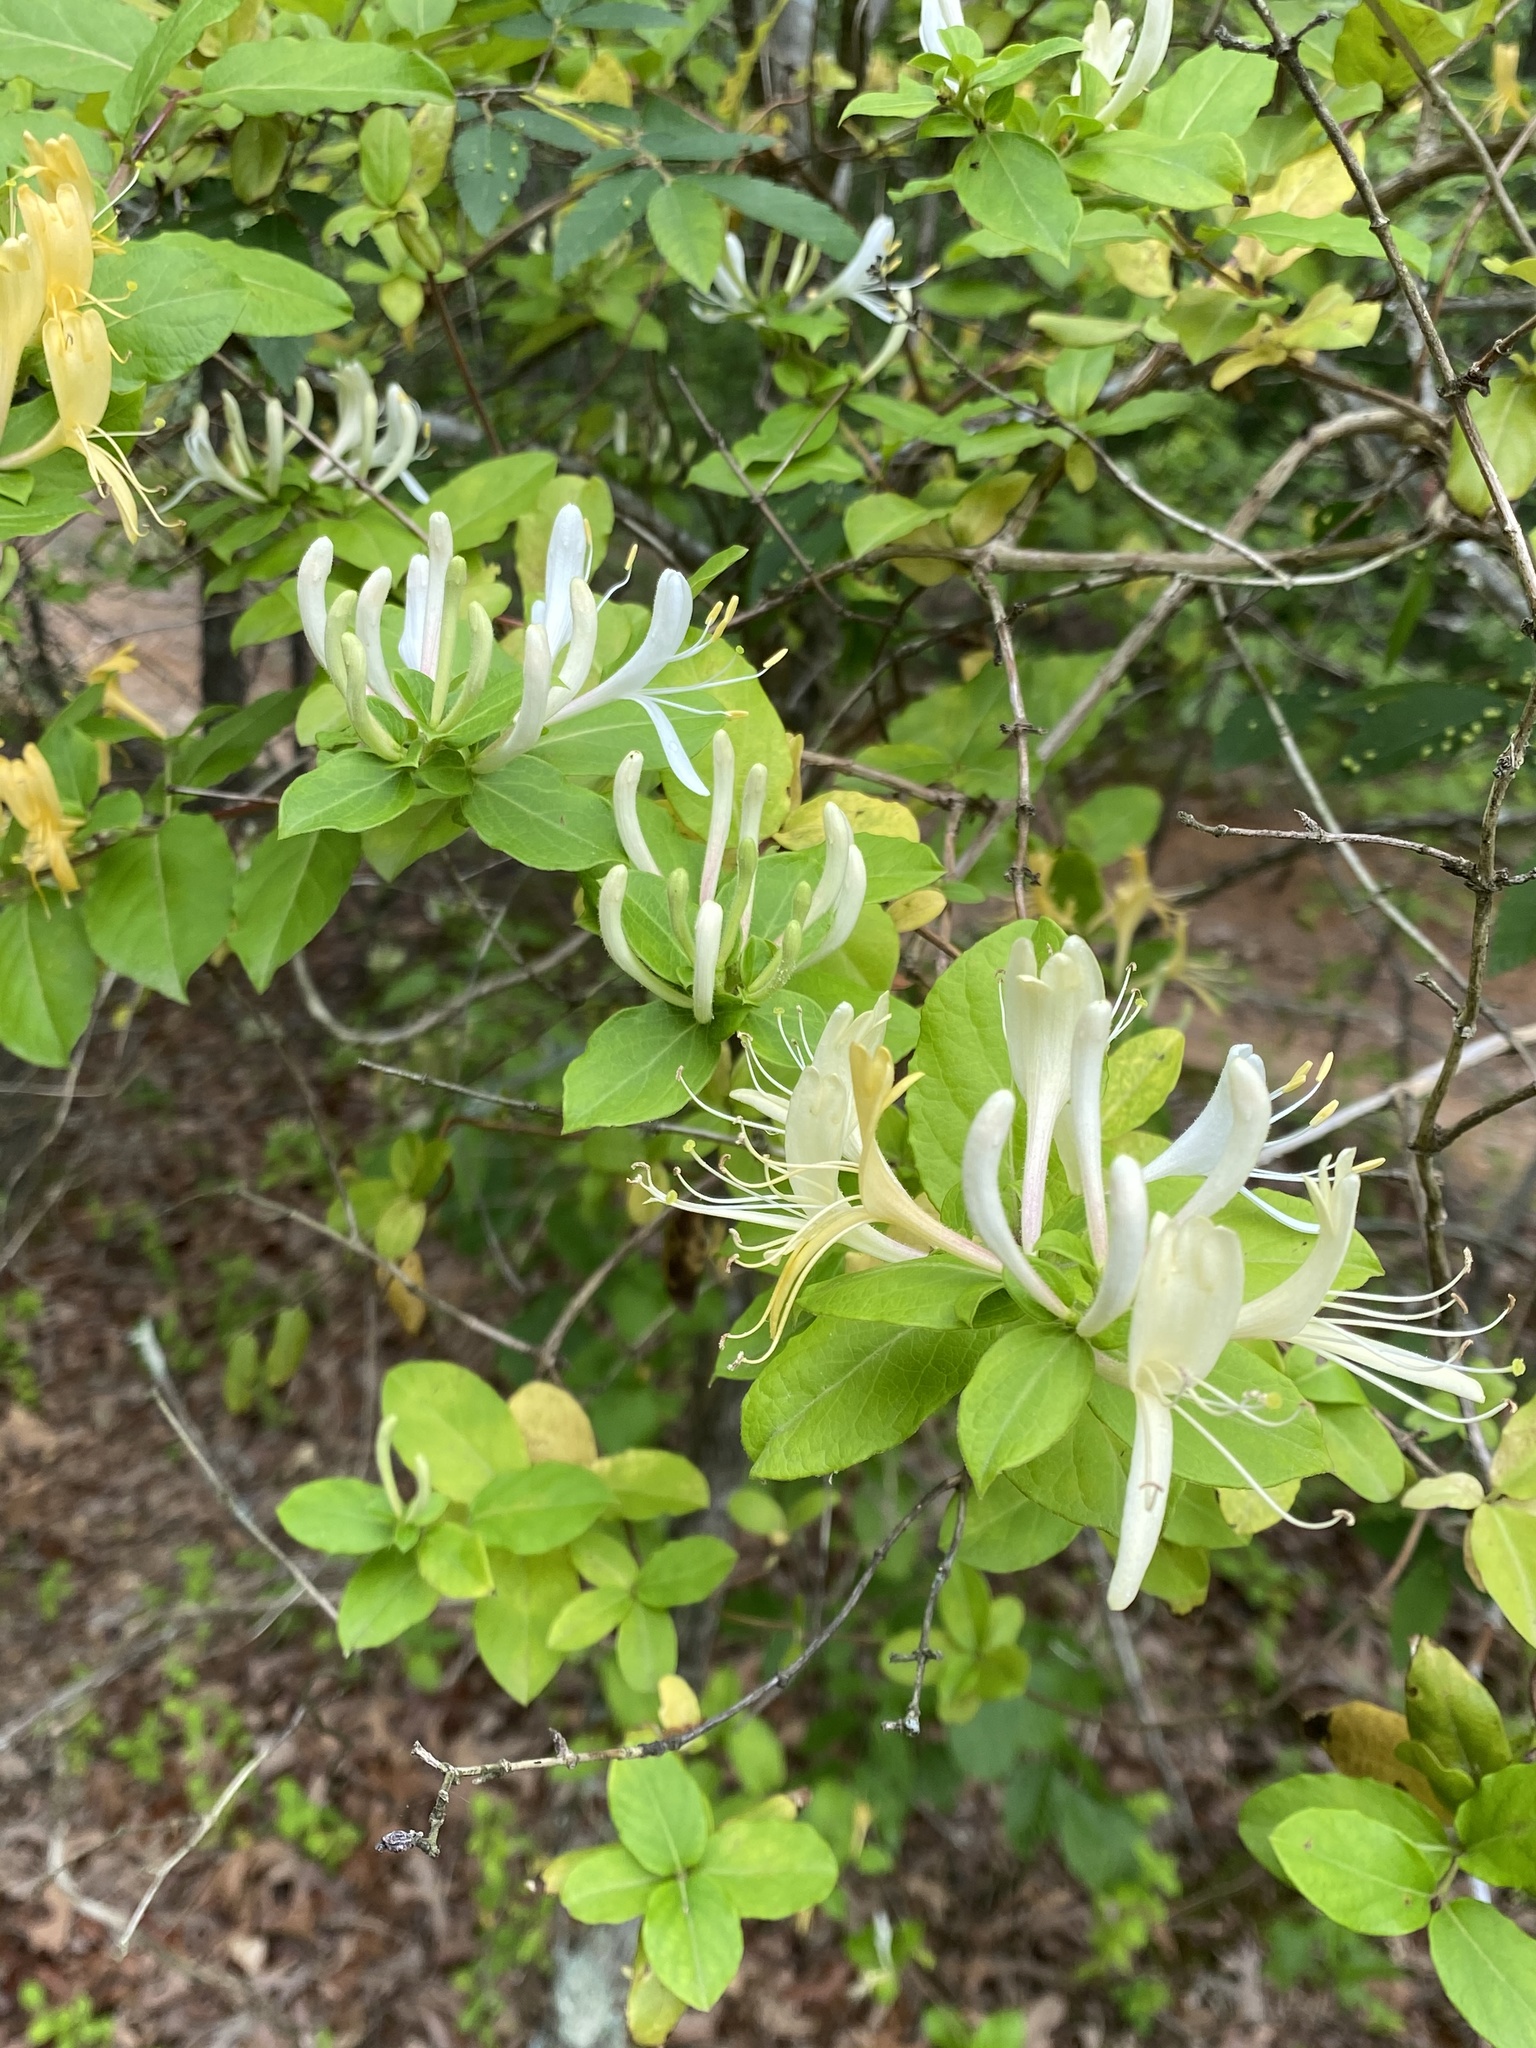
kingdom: Plantae
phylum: Tracheophyta
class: Magnoliopsida
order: Dipsacales
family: Caprifoliaceae
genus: Lonicera
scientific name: Lonicera japonica
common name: Japanese honeysuckle
